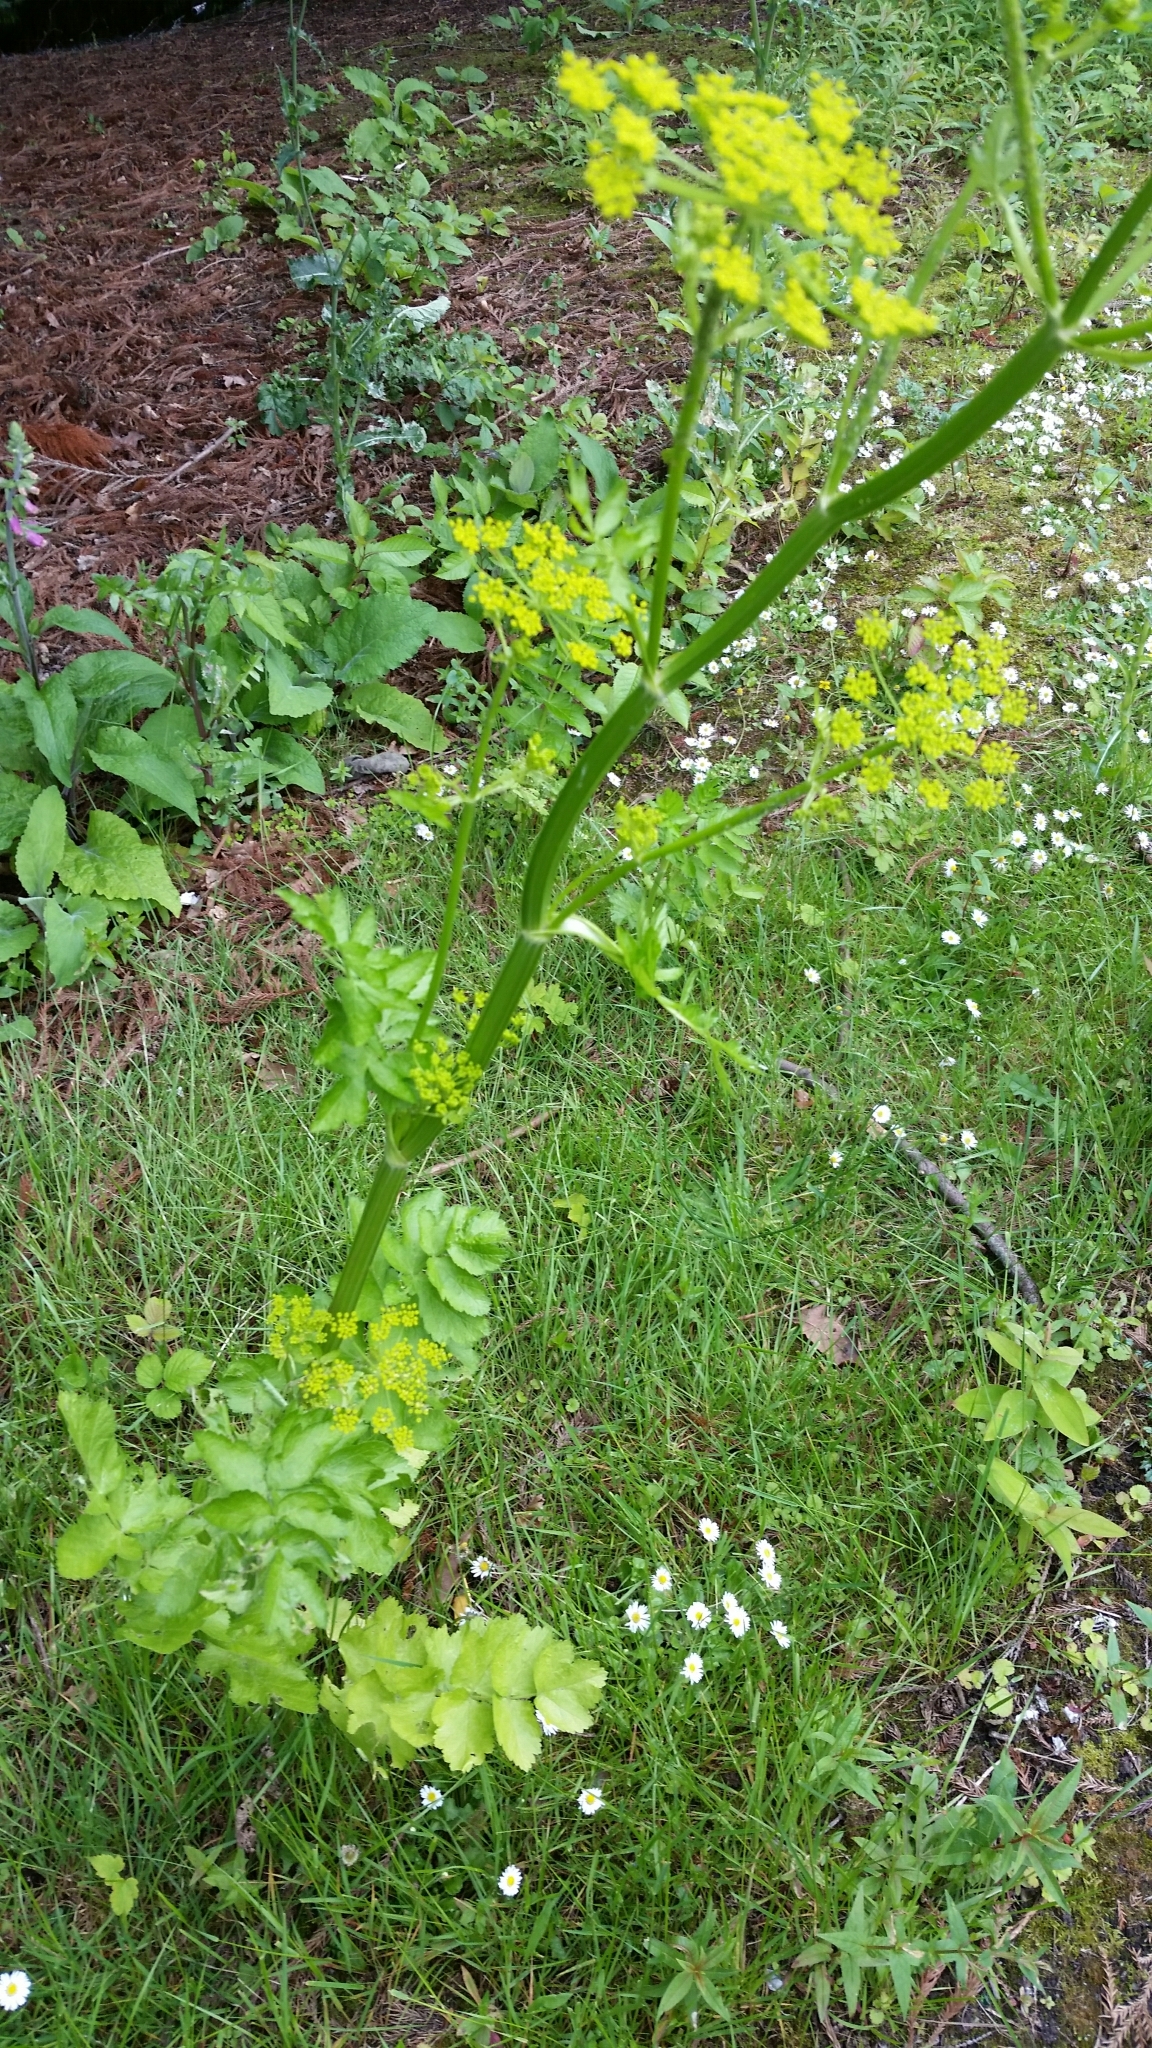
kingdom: Plantae
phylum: Tracheophyta
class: Magnoliopsida
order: Apiales
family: Apiaceae
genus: Pastinaca
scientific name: Pastinaca sativa
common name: Wild parsnip
